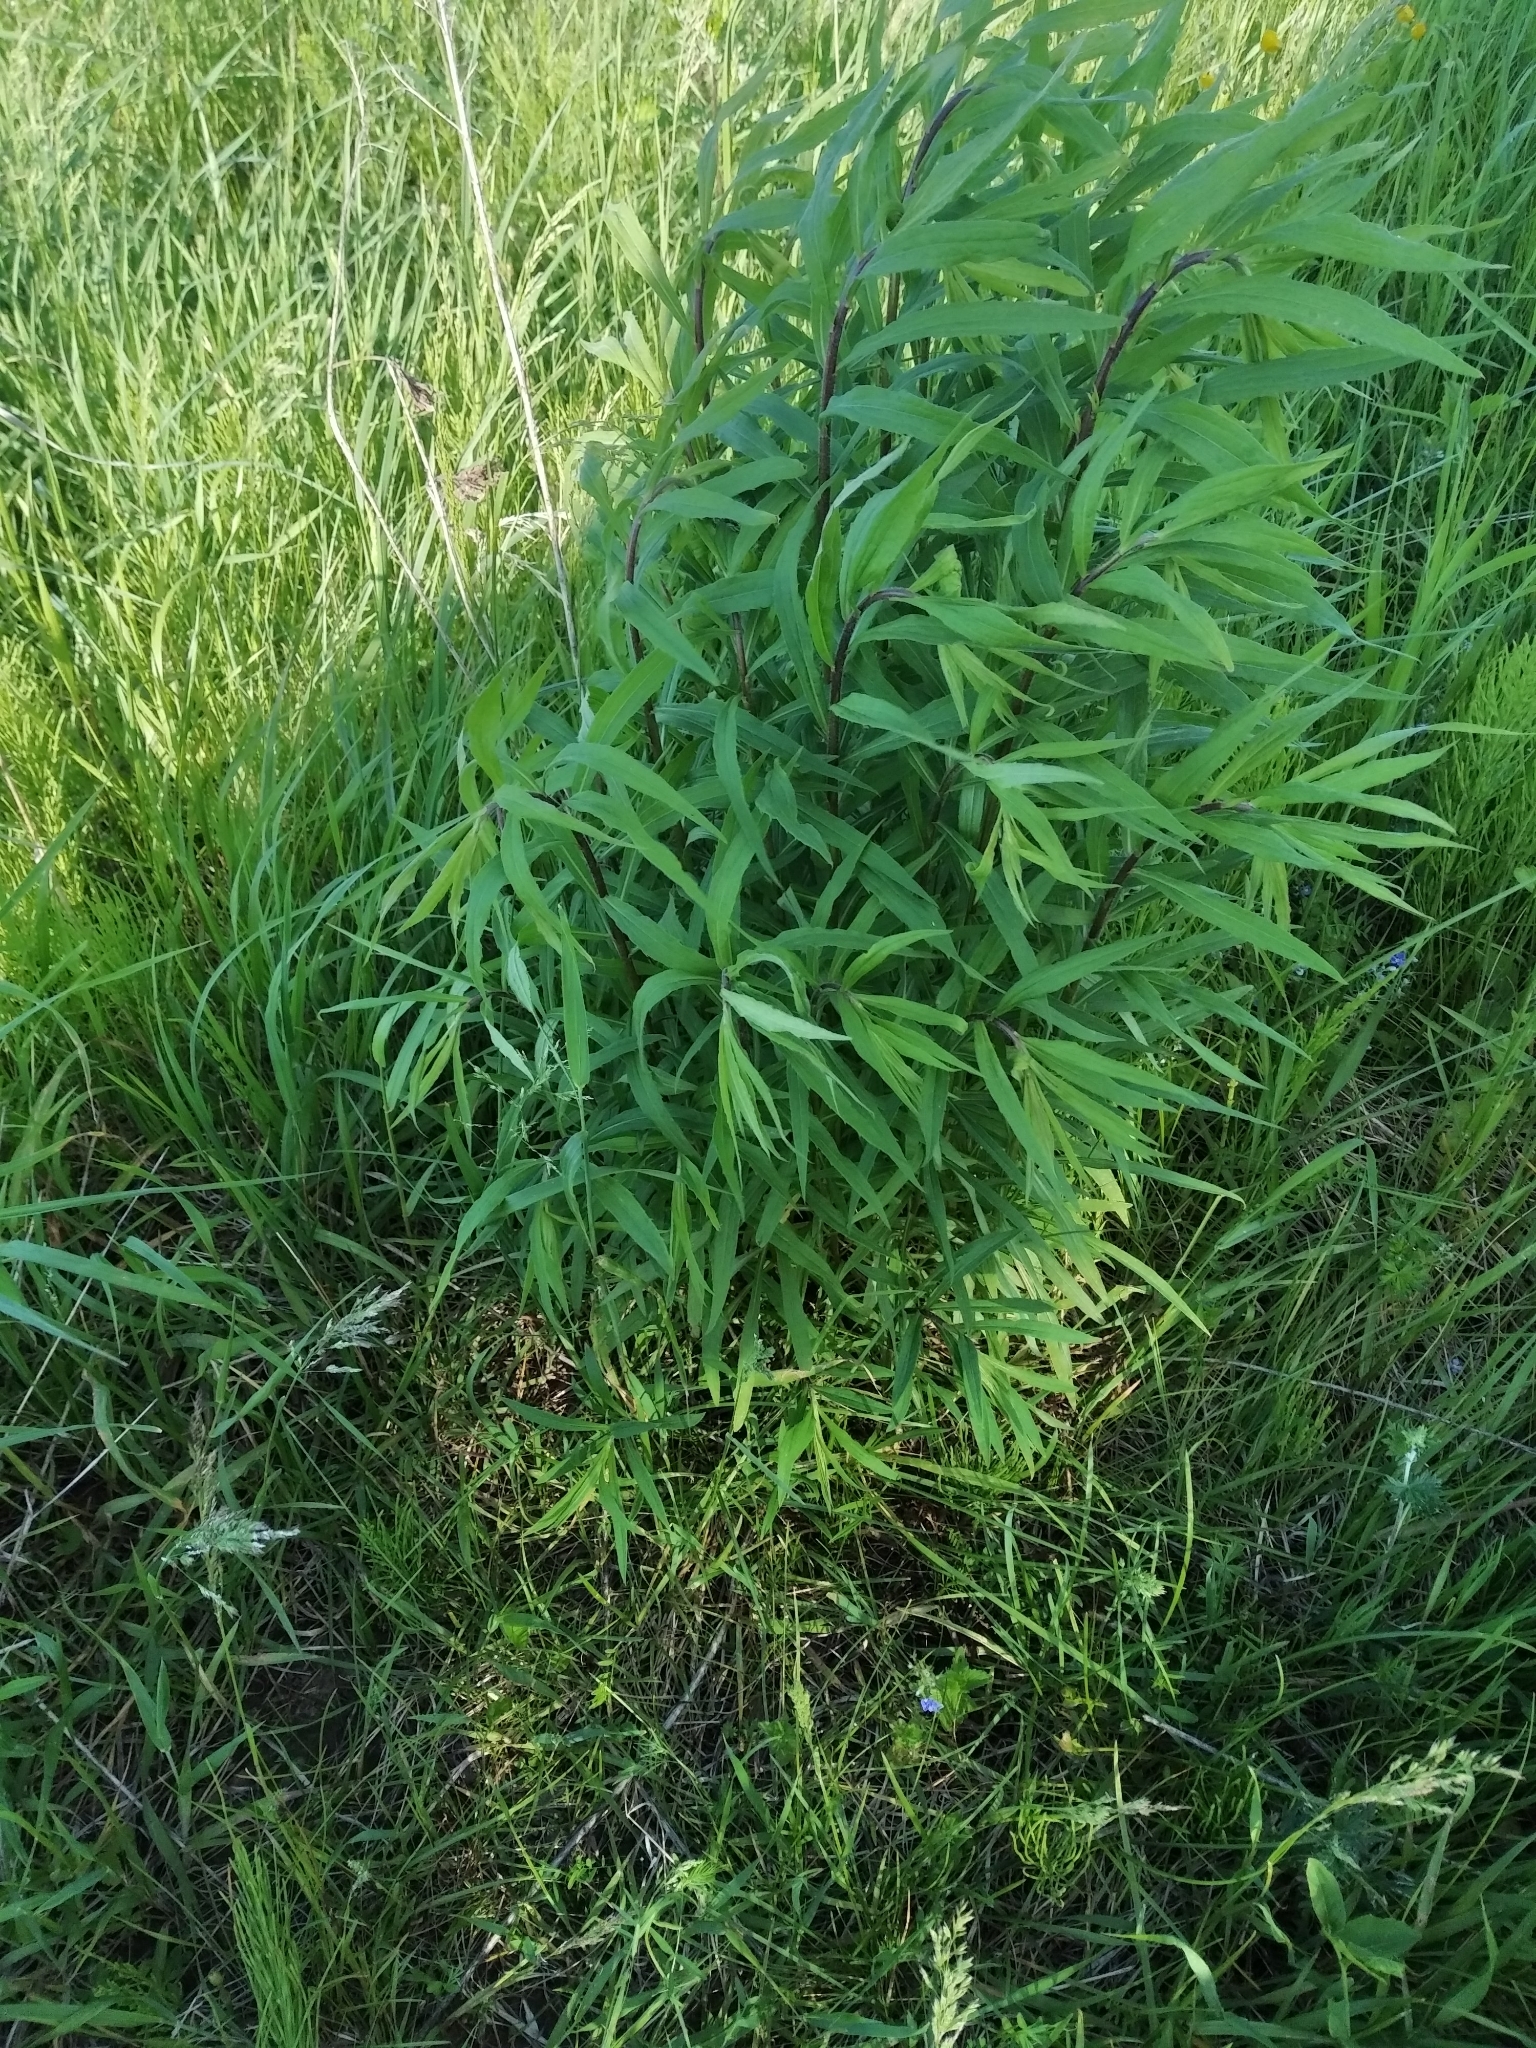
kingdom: Plantae
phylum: Tracheophyta
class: Magnoliopsida
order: Asterales
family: Asteraceae
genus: Solidago
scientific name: Solidago canadensis
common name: Canada goldenrod
